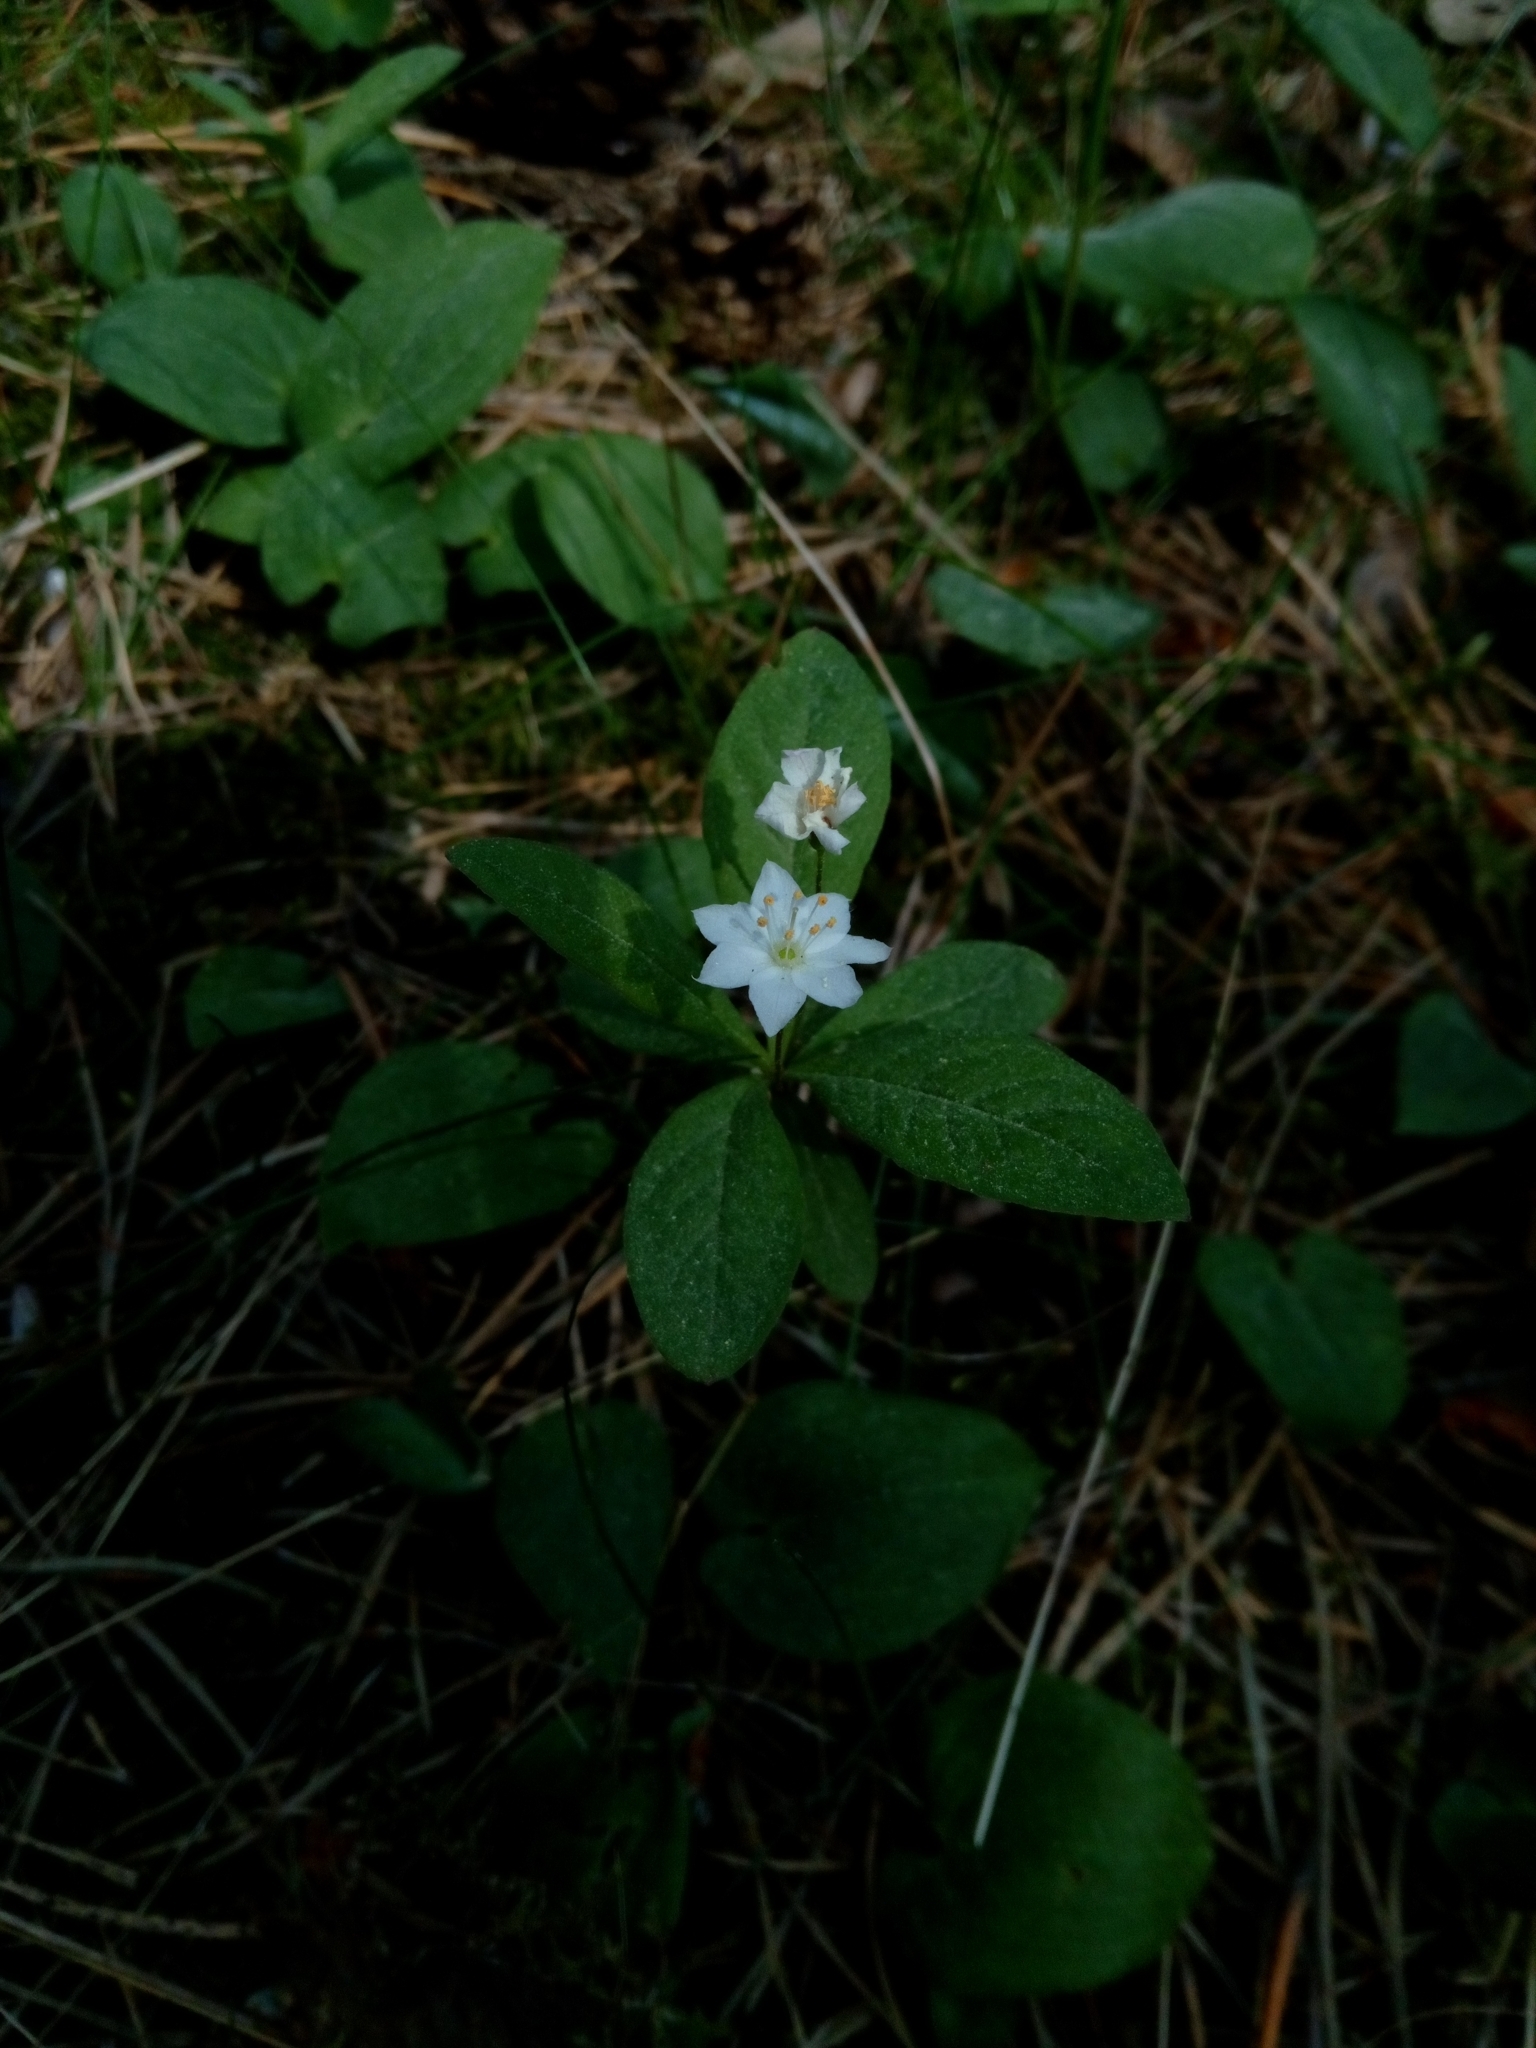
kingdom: Plantae
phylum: Tracheophyta
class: Magnoliopsida
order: Ericales
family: Primulaceae
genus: Lysimachia
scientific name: Lysimachia europaea
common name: Arctic starflower
